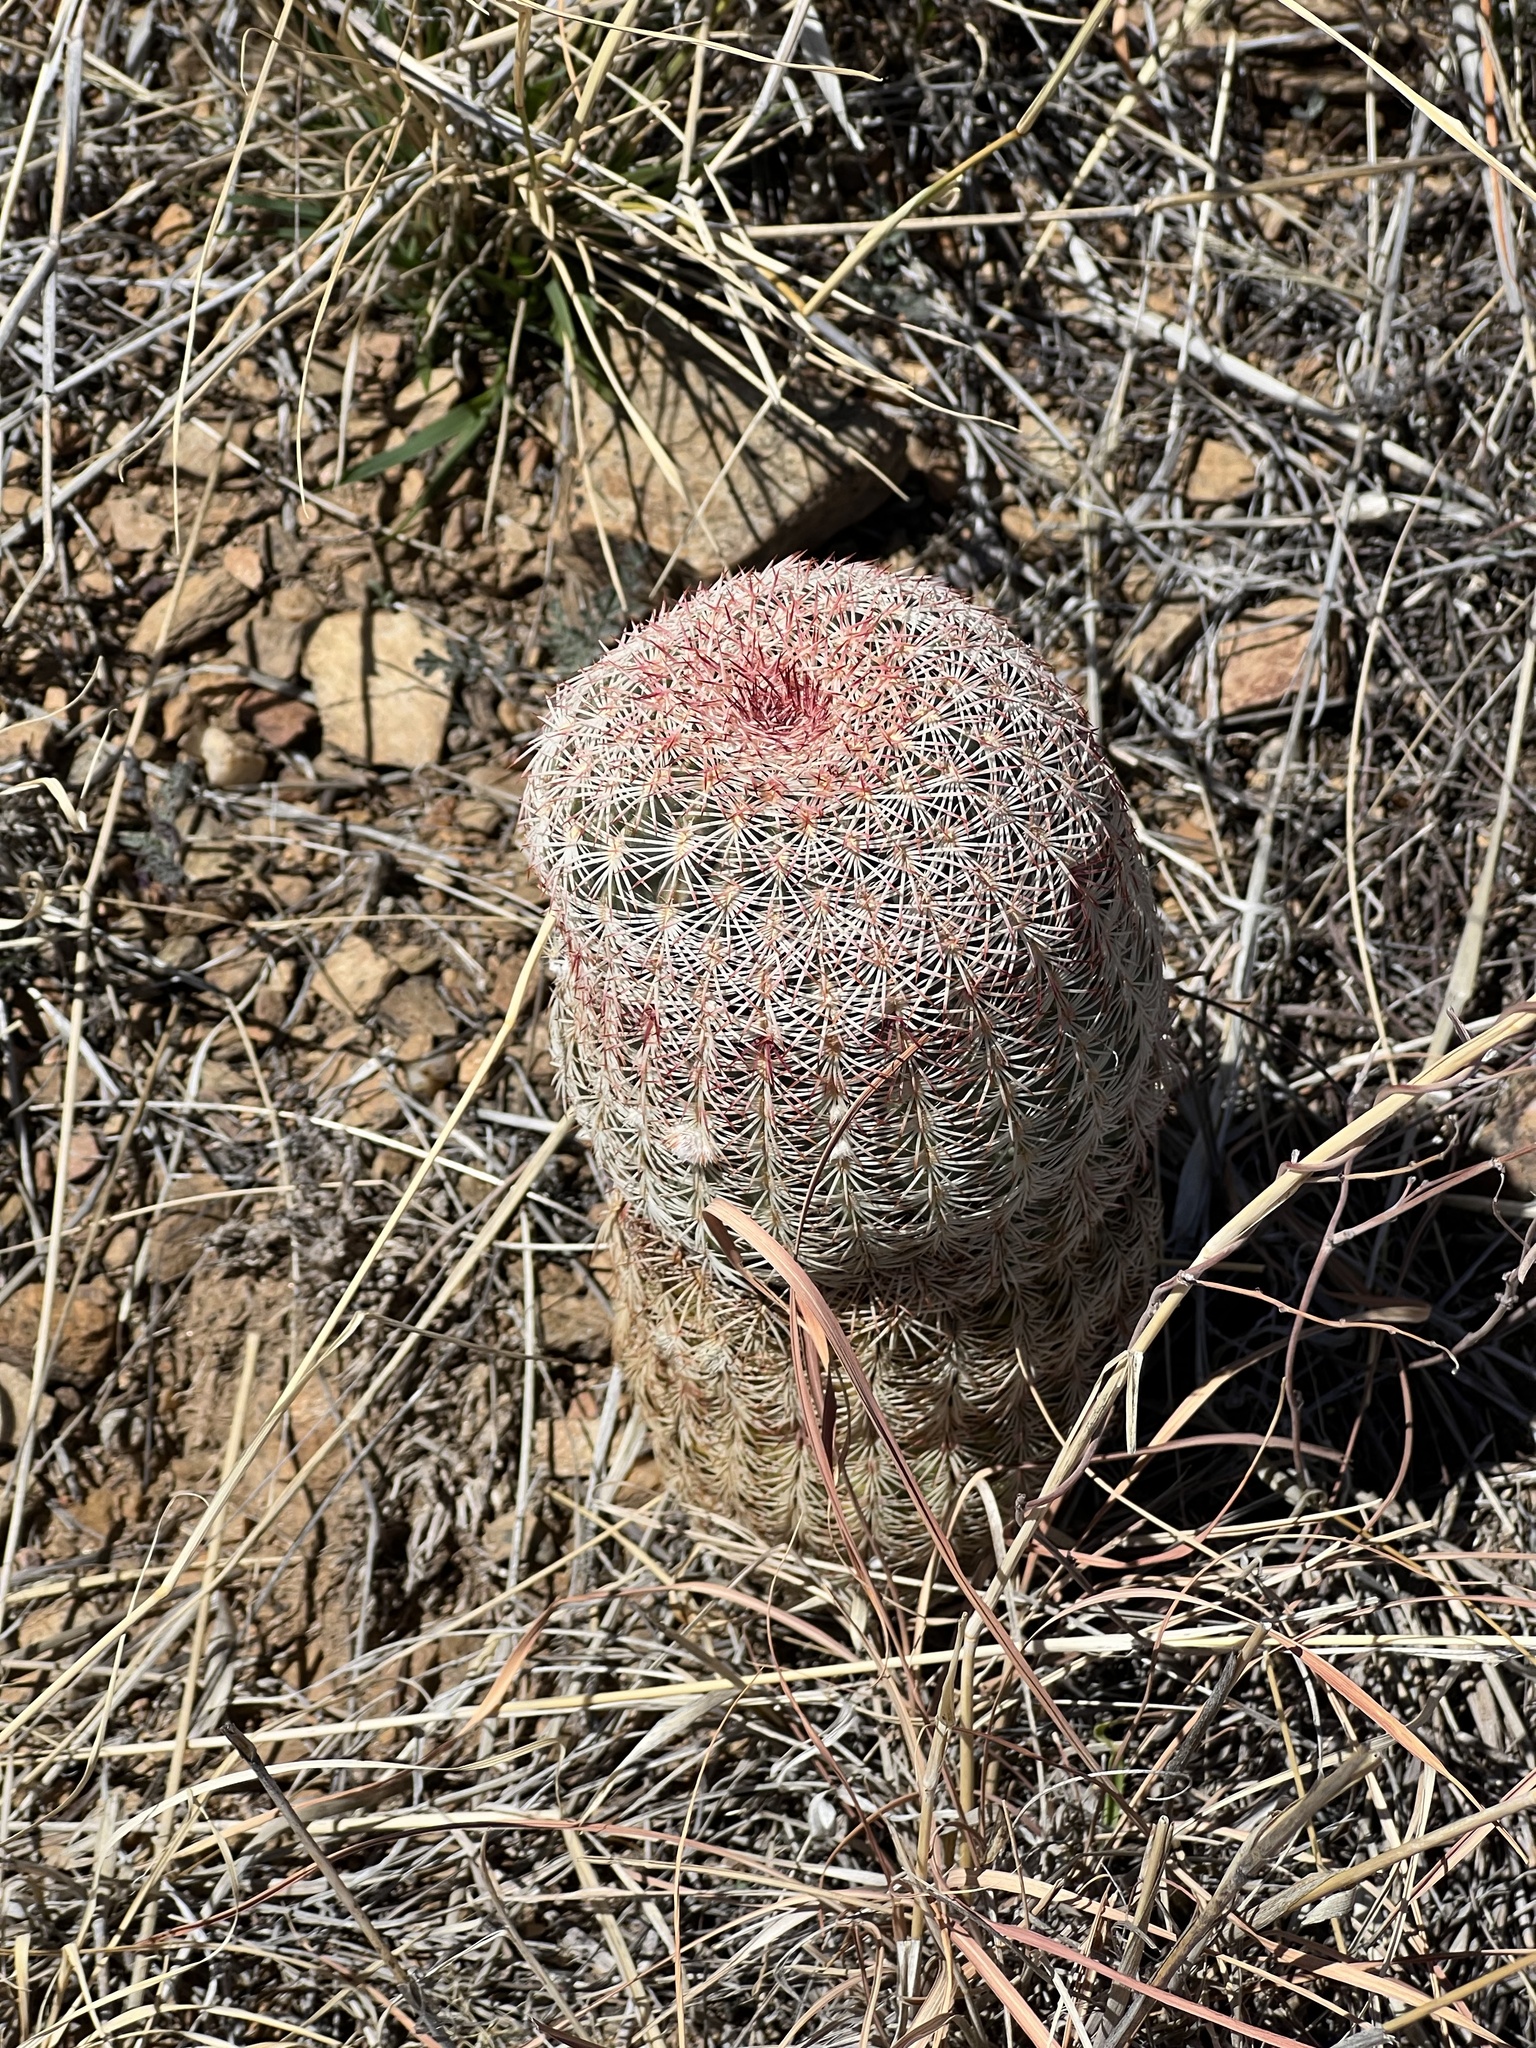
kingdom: Plantae
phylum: Tracheophyta
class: Magnoliopsida
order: Caryophyllales
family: Cactaceae
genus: Echinocereus
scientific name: Echinocereus rigidissimus
